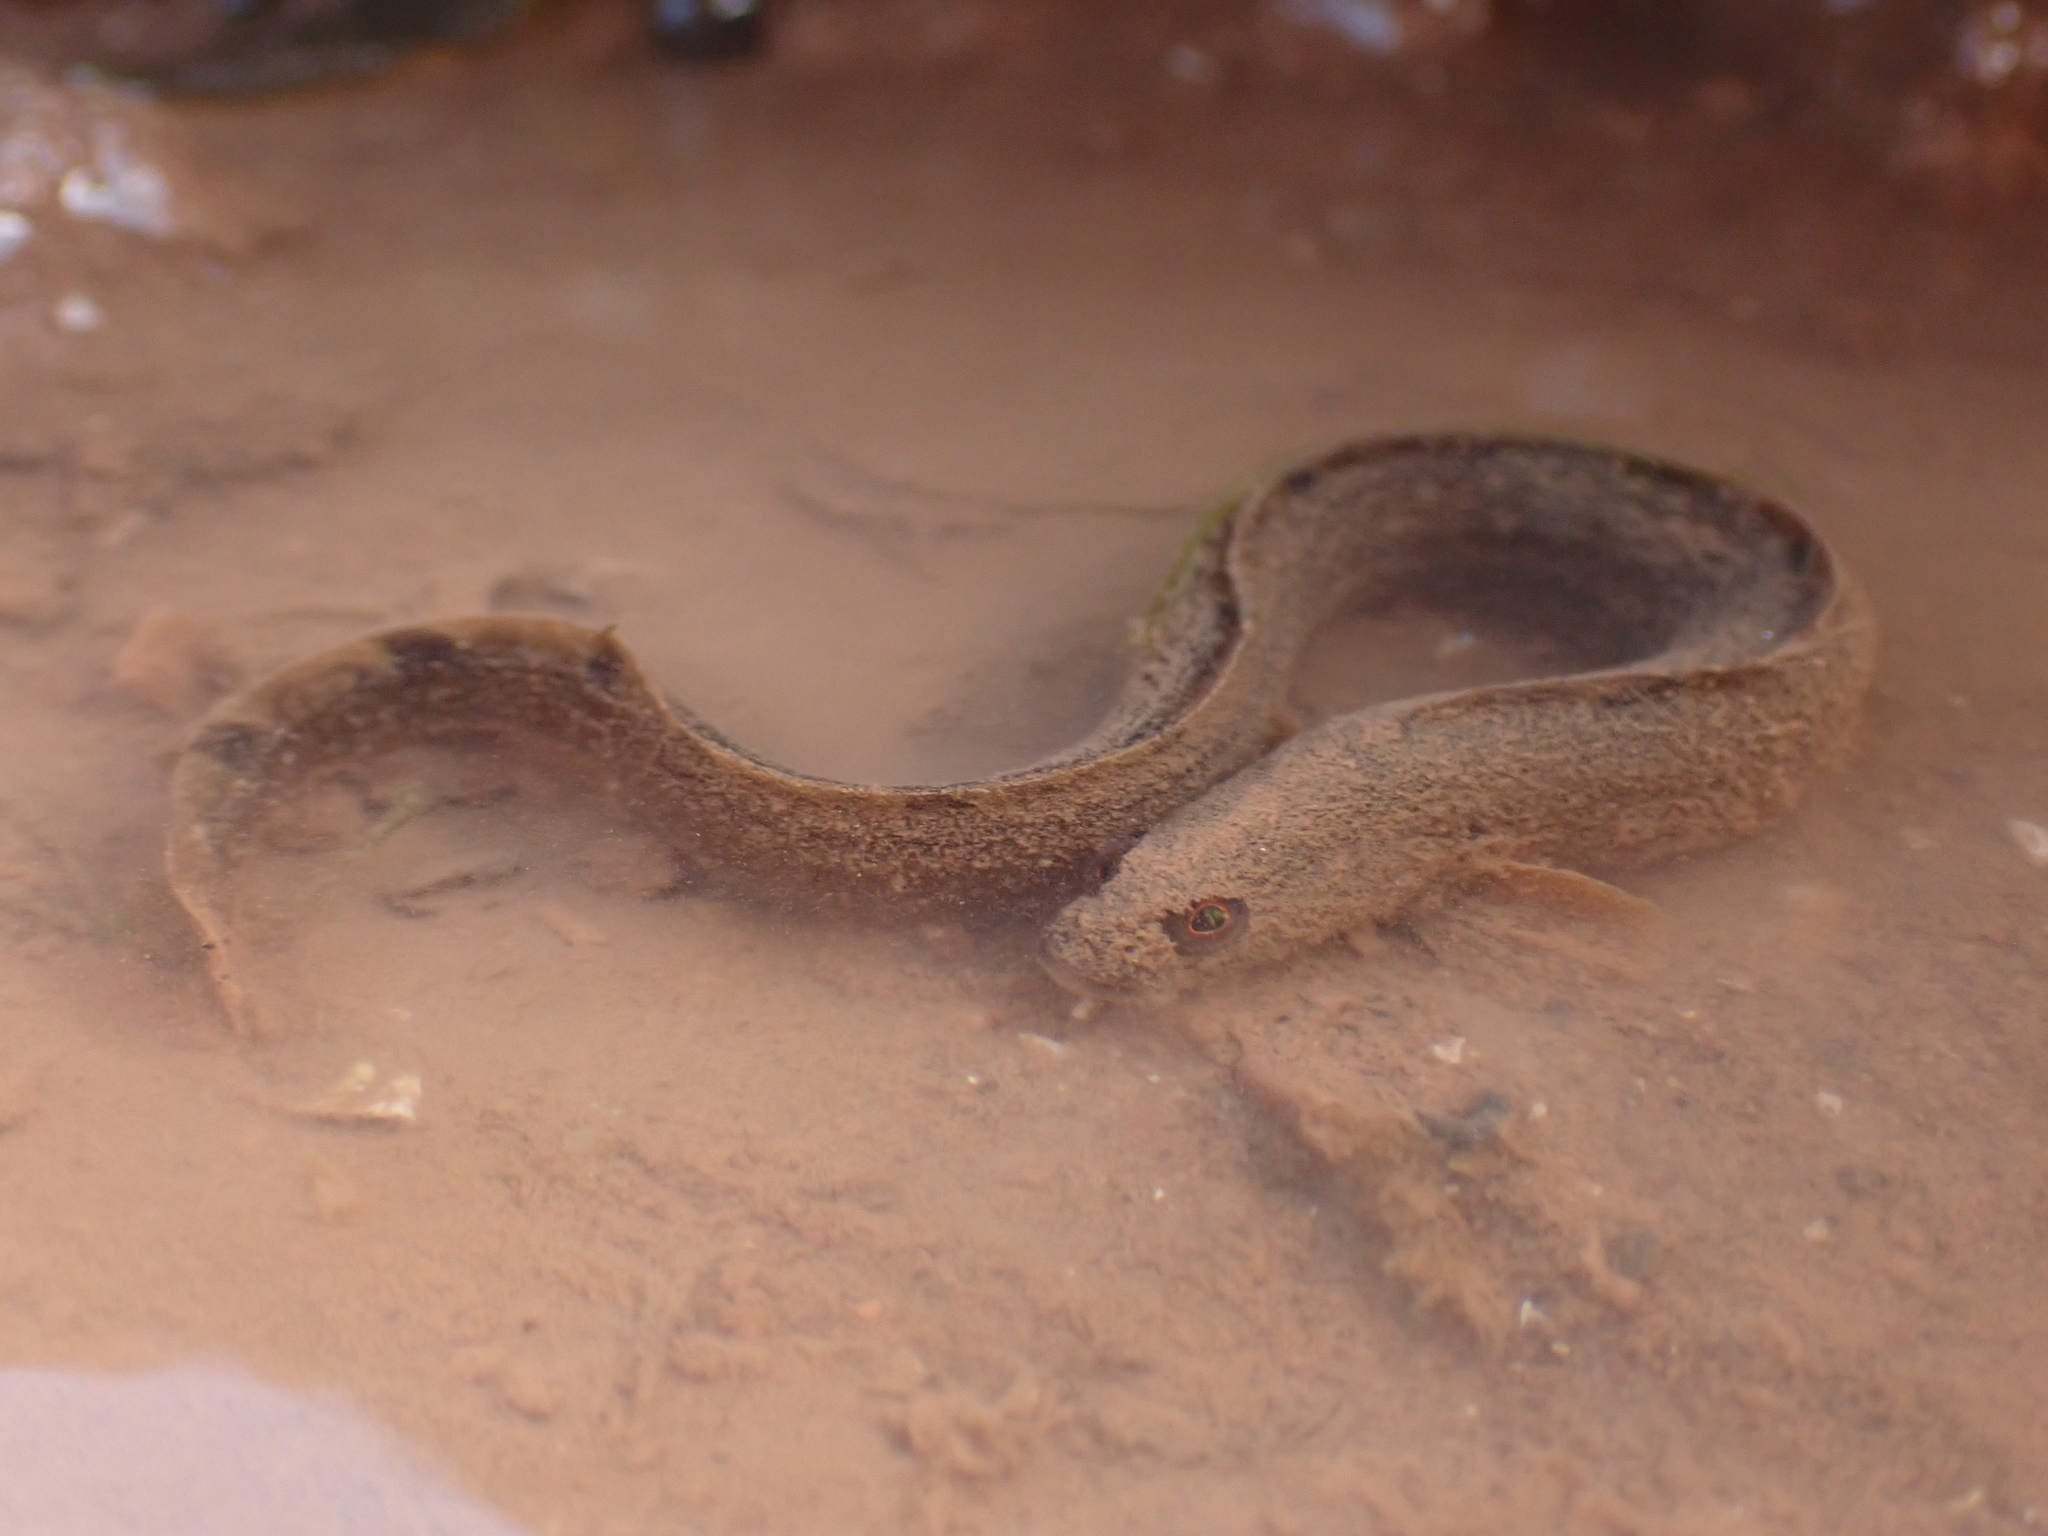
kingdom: Animalia
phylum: Chordata
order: Perciformes
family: Pholidae
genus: Pholis
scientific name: Pholis gunnellus
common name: Butterfish
